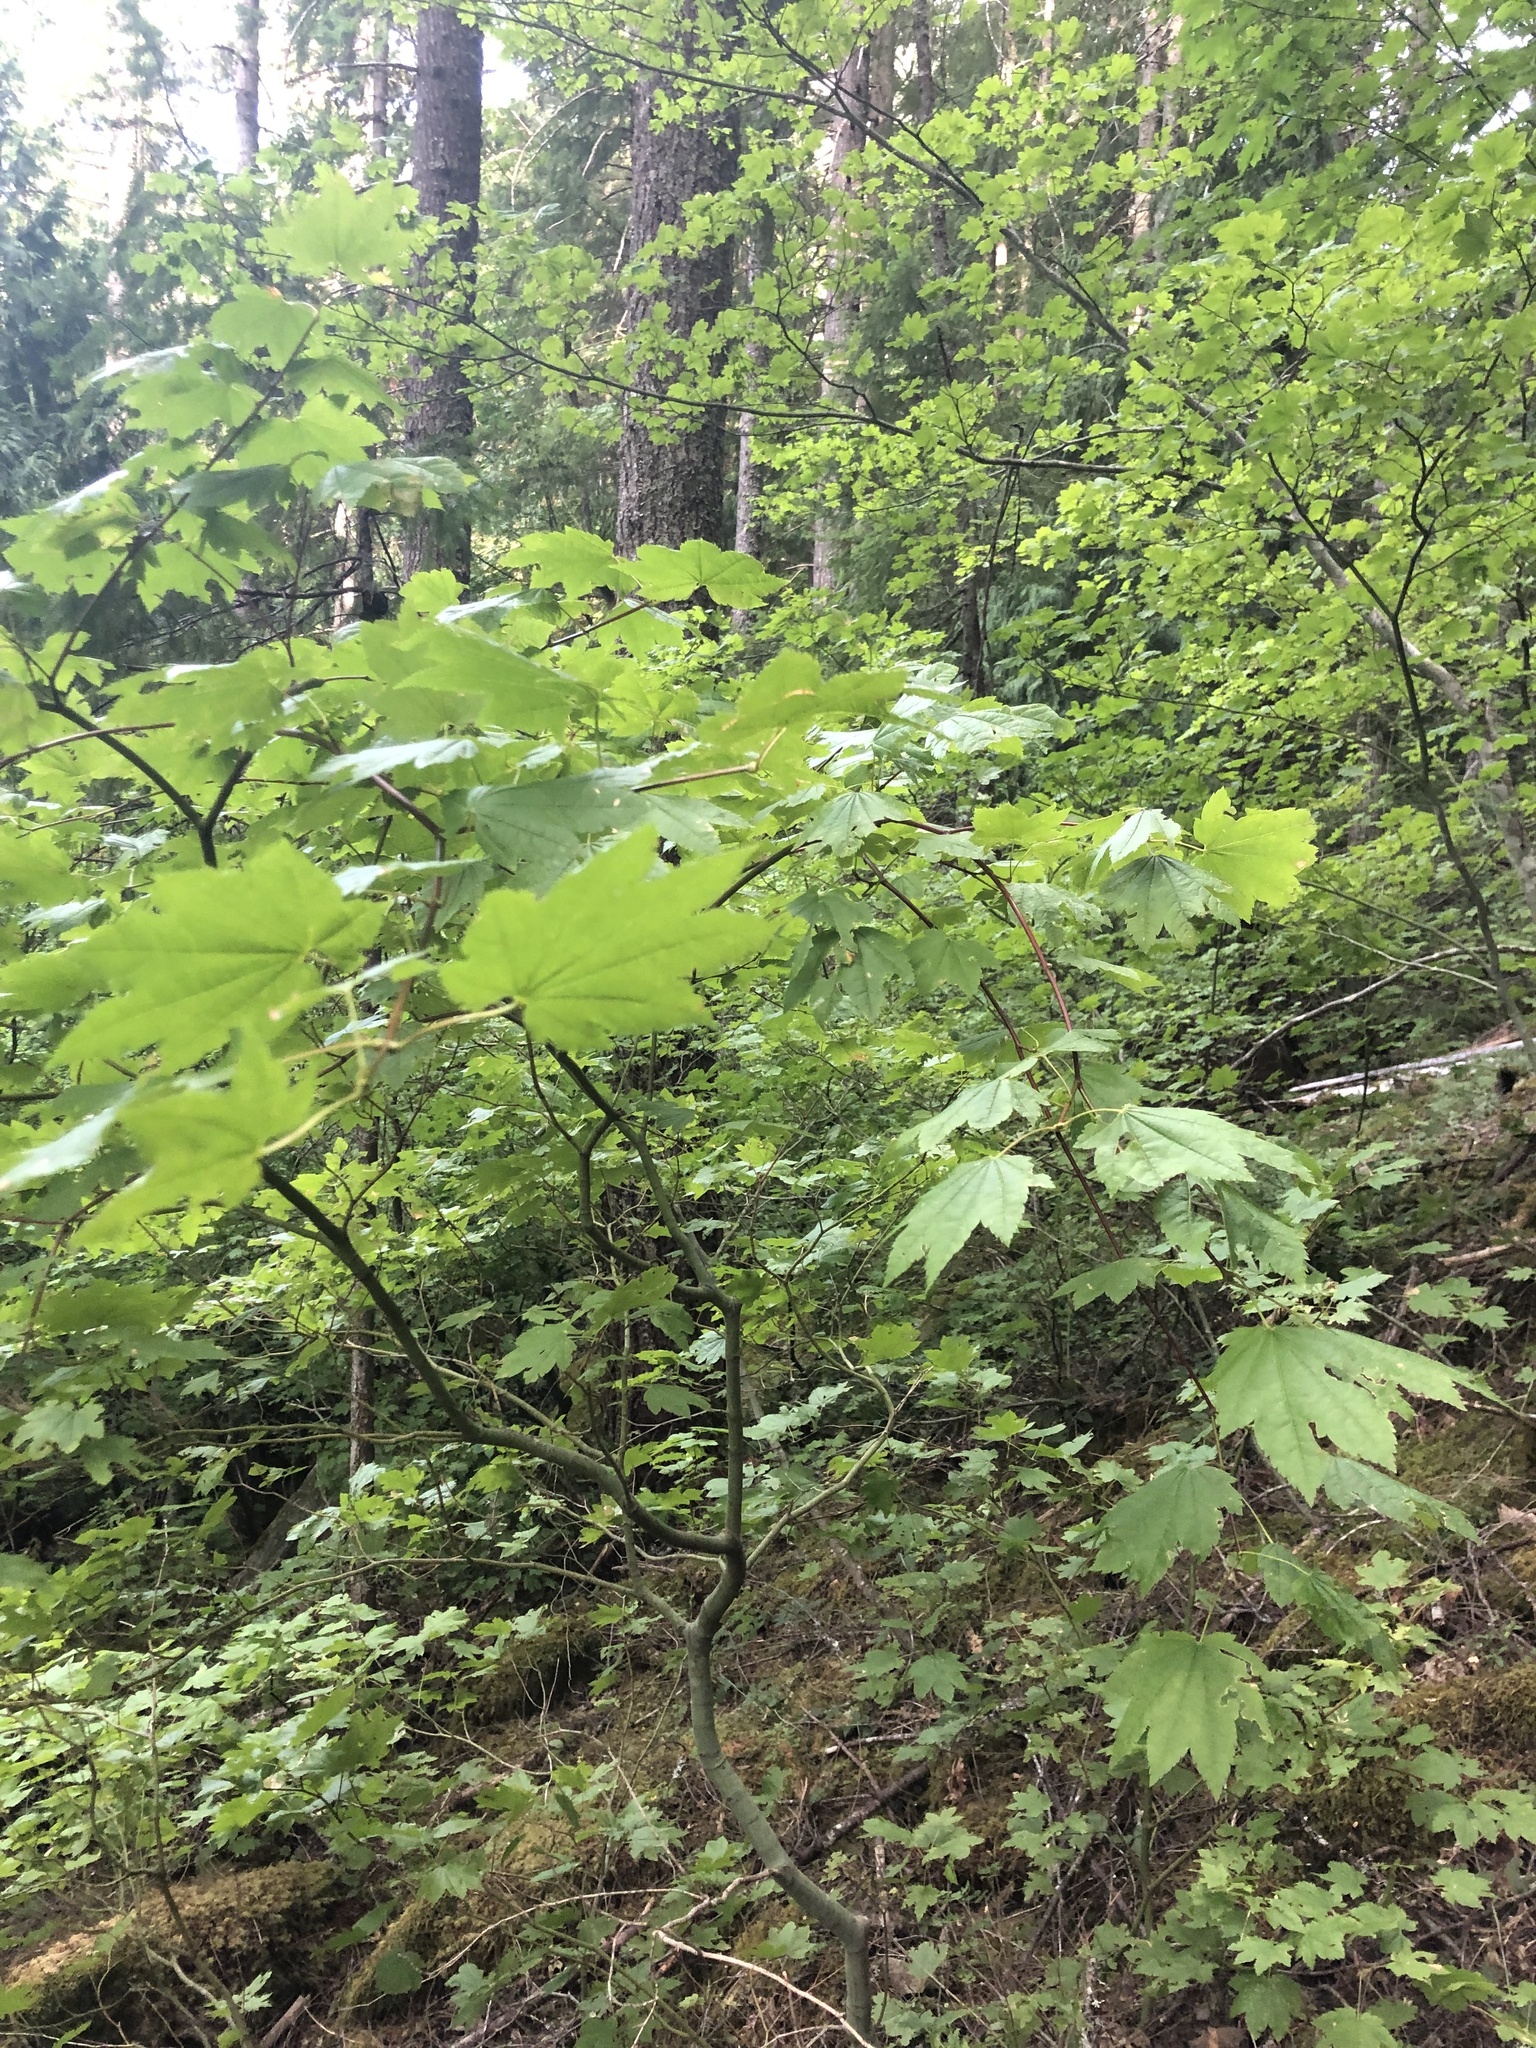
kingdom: Plantae
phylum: Tracheophyta
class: Magnoliopsida
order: Sapindales
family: Sapindaceae
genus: Acer
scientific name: Acer circinatum
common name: Vine maple
